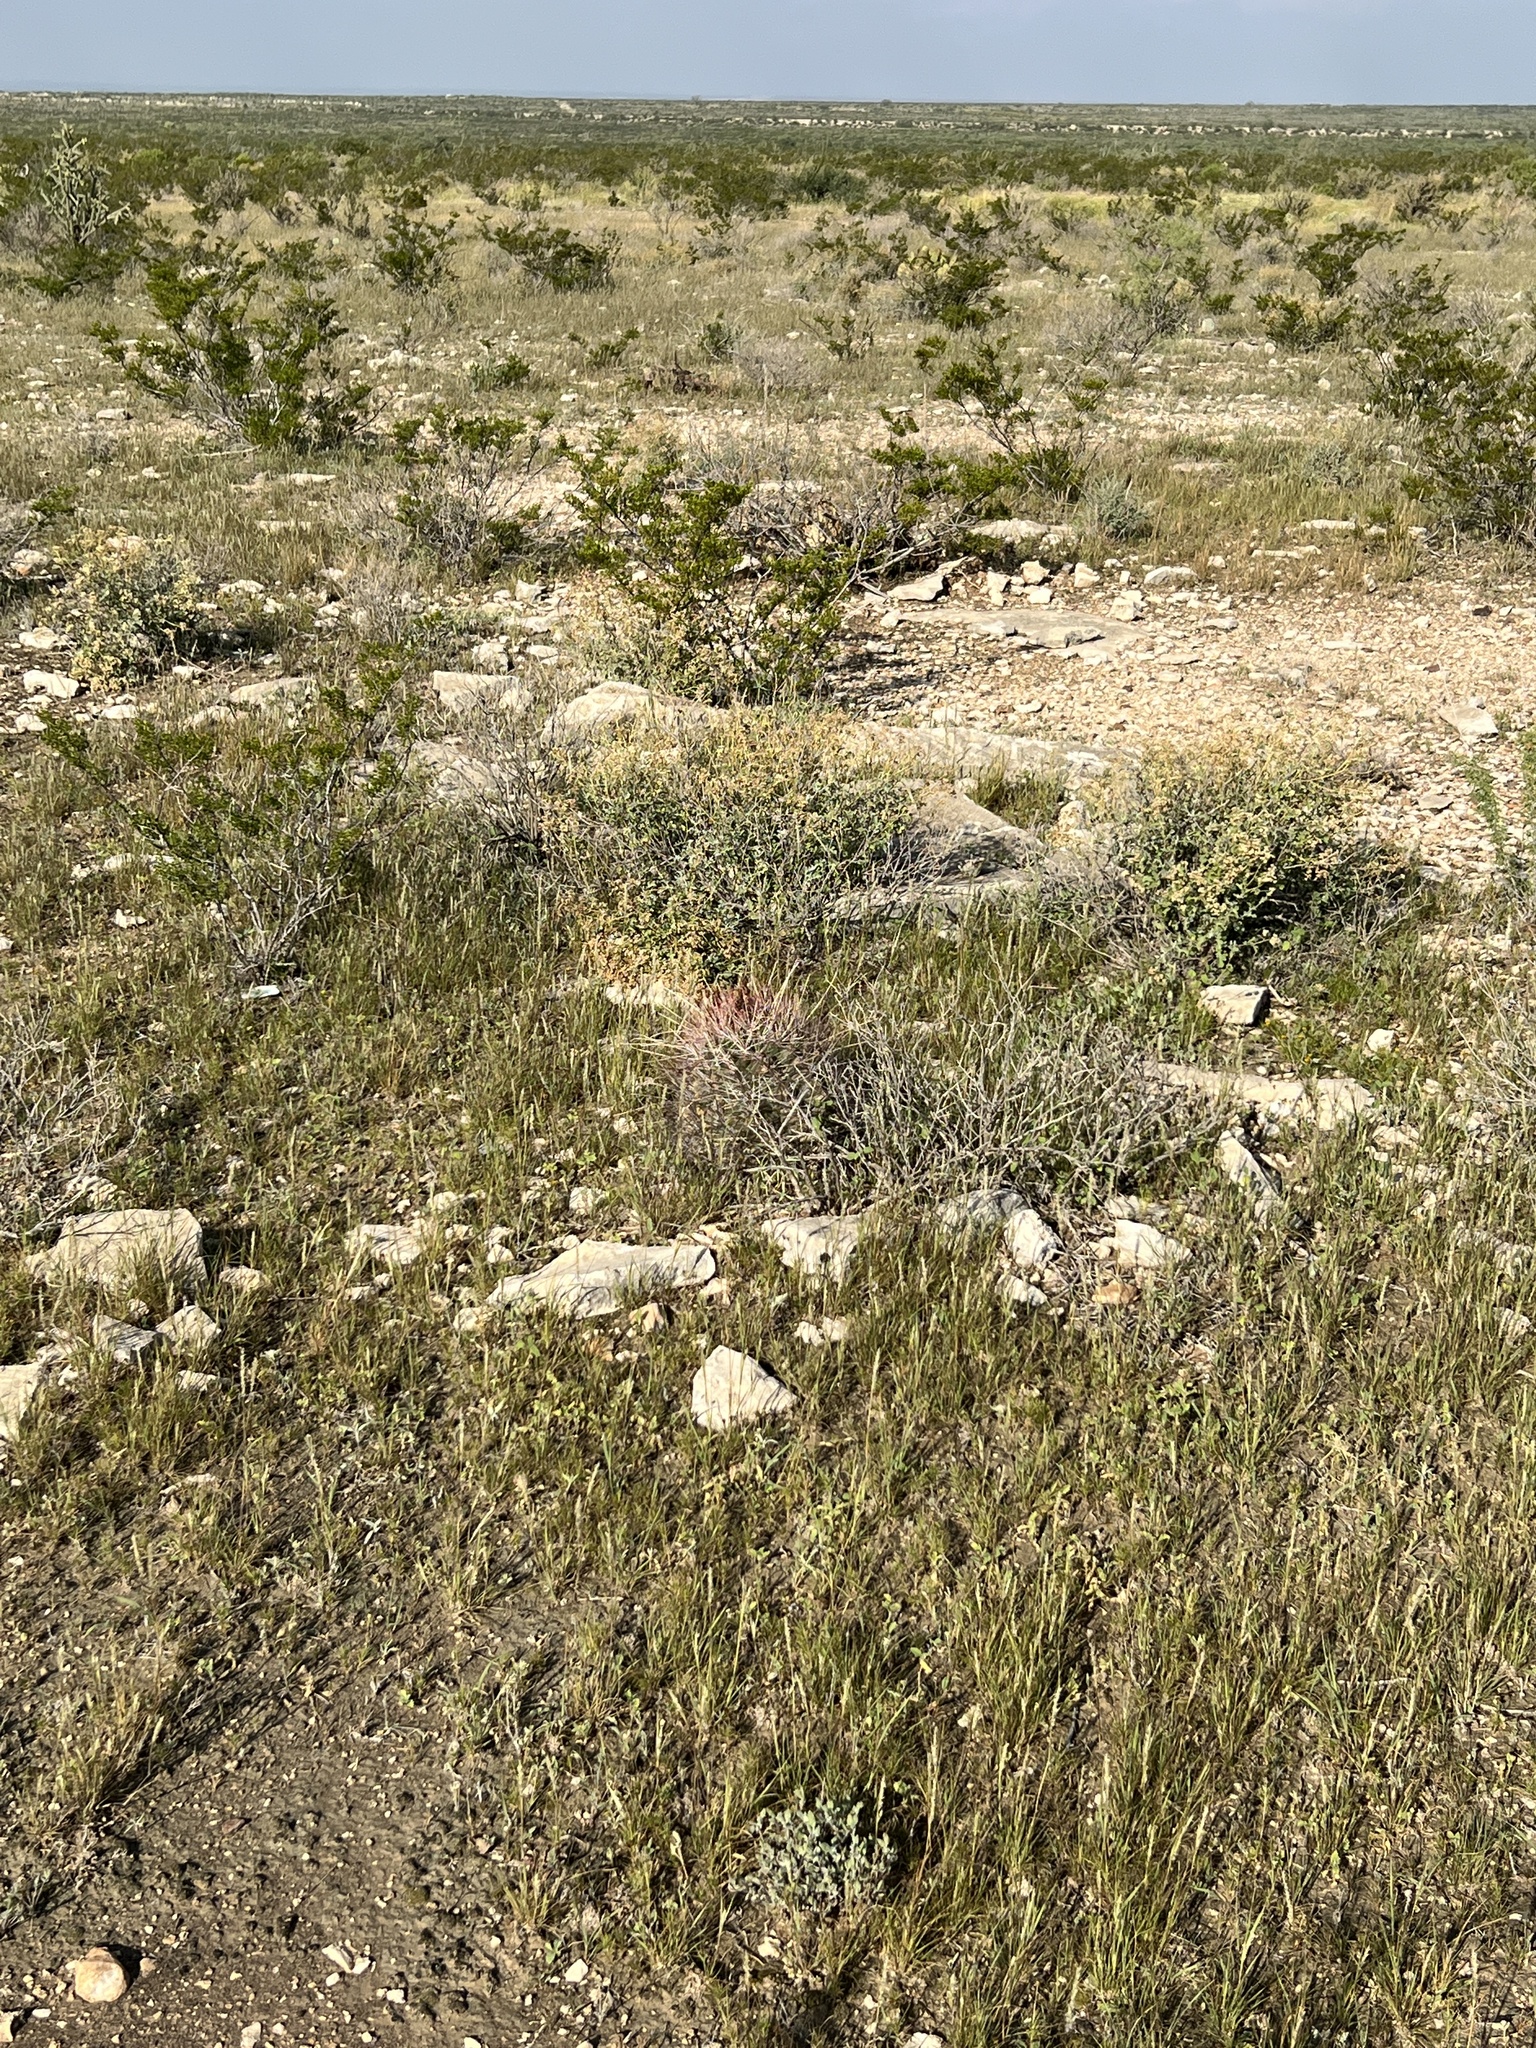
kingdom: Plantae
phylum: Tracheophyta
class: Magnoliopsida
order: Caryophyllales
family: Cactaceae
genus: Bisnaga
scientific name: Bisnaga hamatacantha
